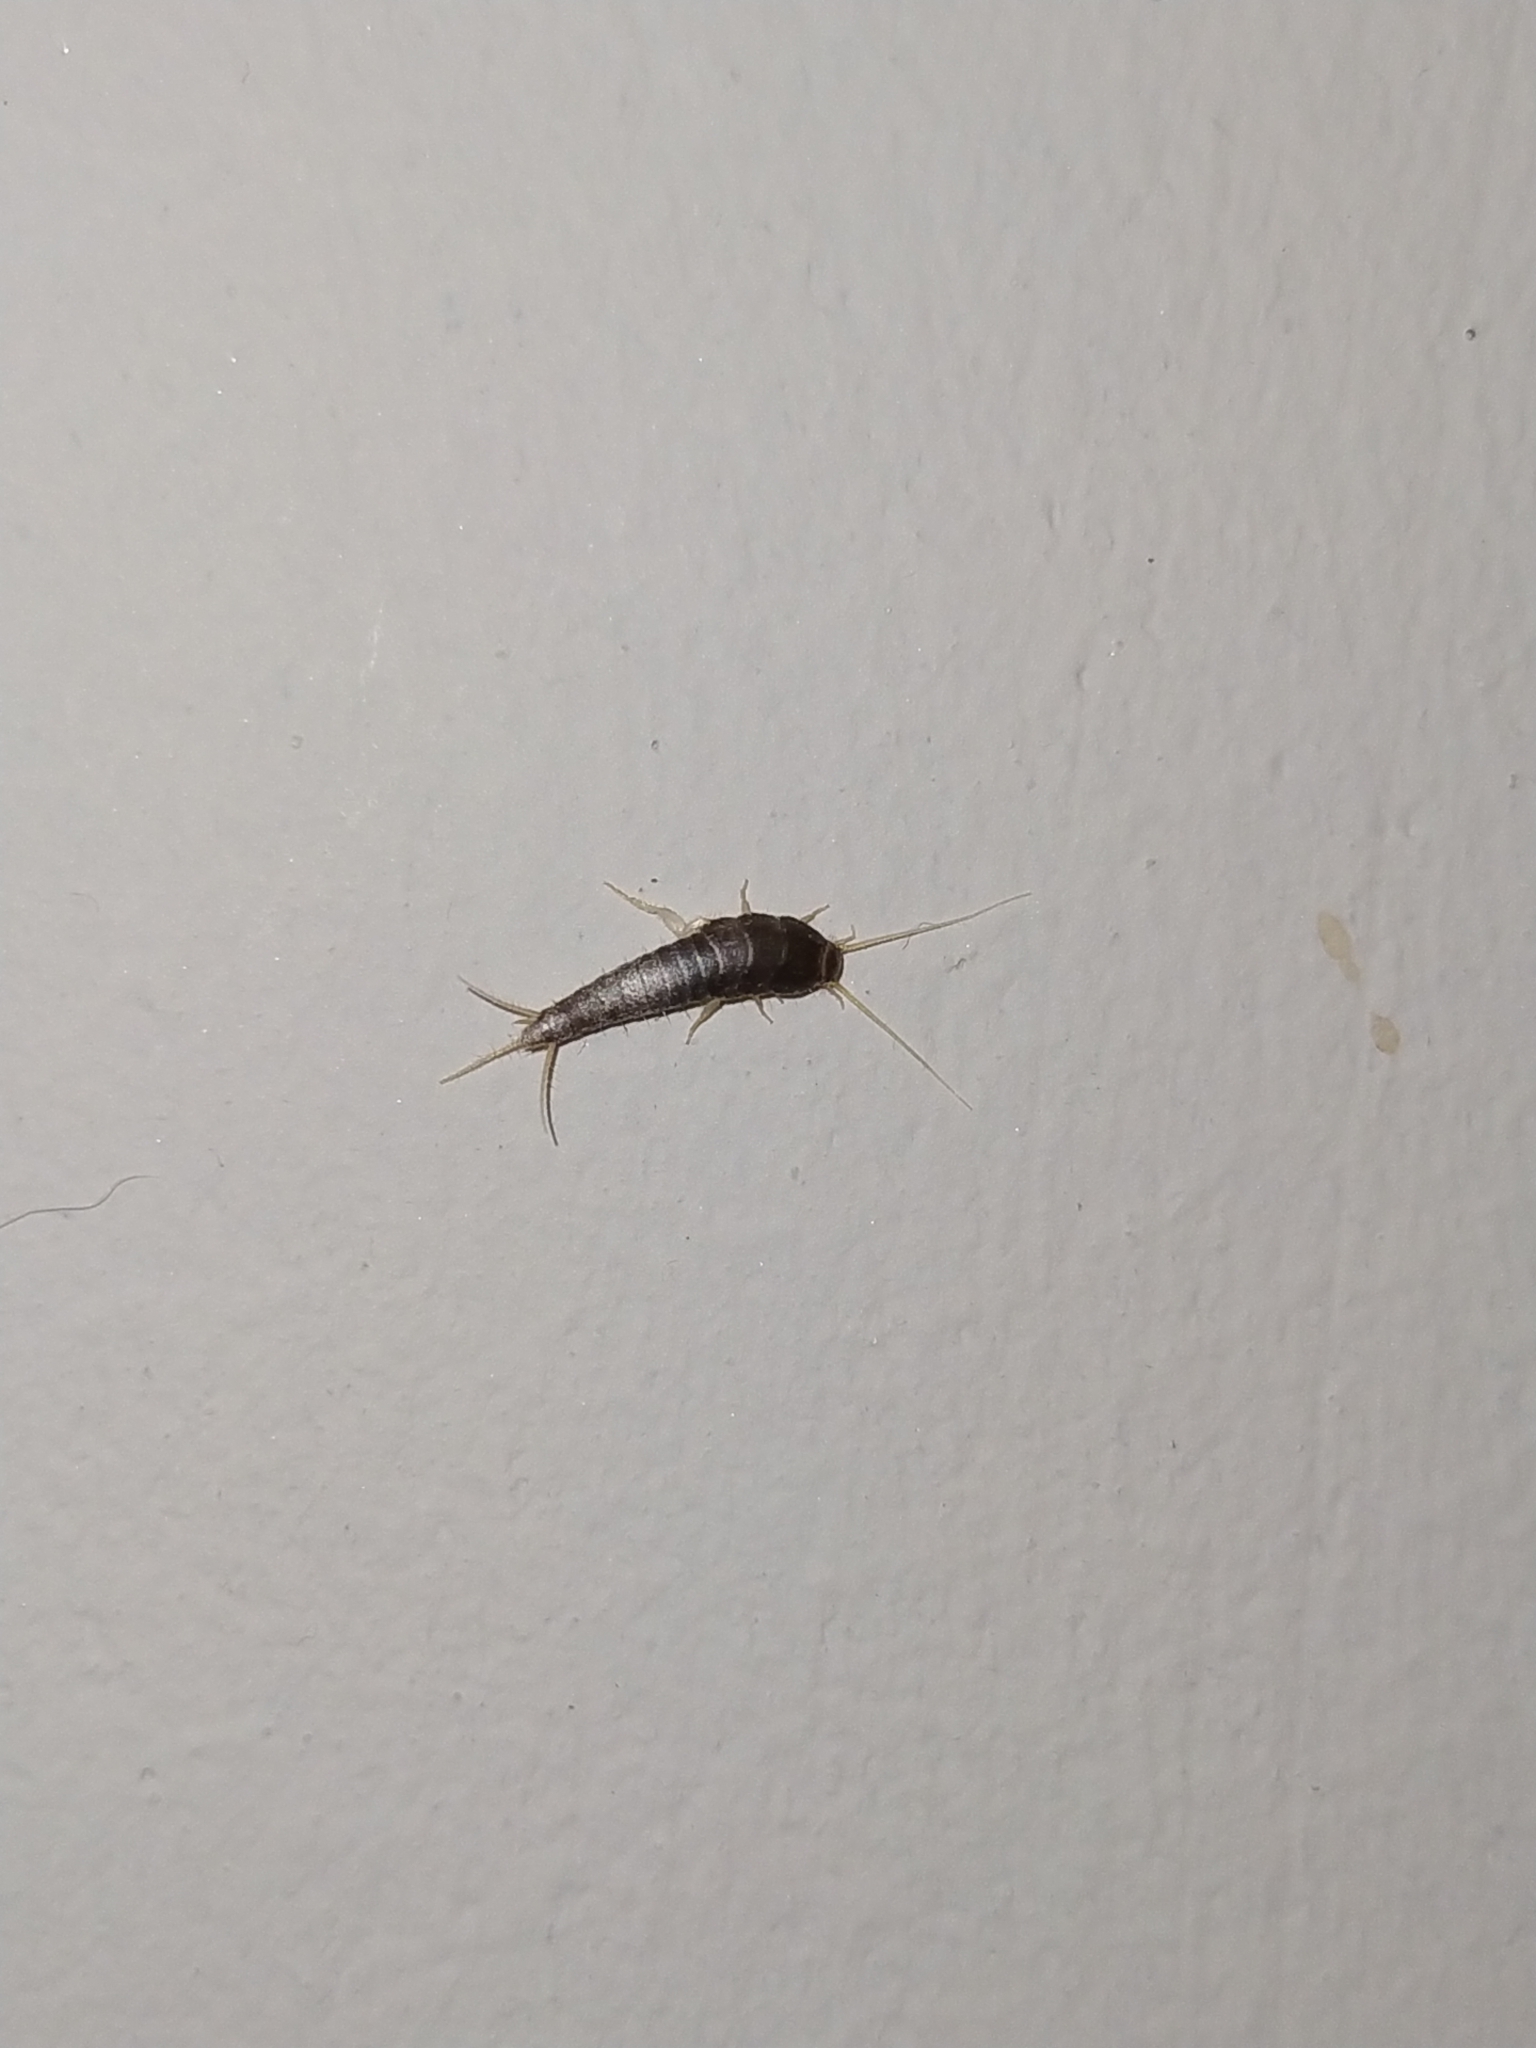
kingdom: Animalia
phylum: Arthropoda
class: Insecta
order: Zygentoma
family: Lepismatidae
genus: Lepisma
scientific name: Lepisma saccharinum
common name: Silverfish
